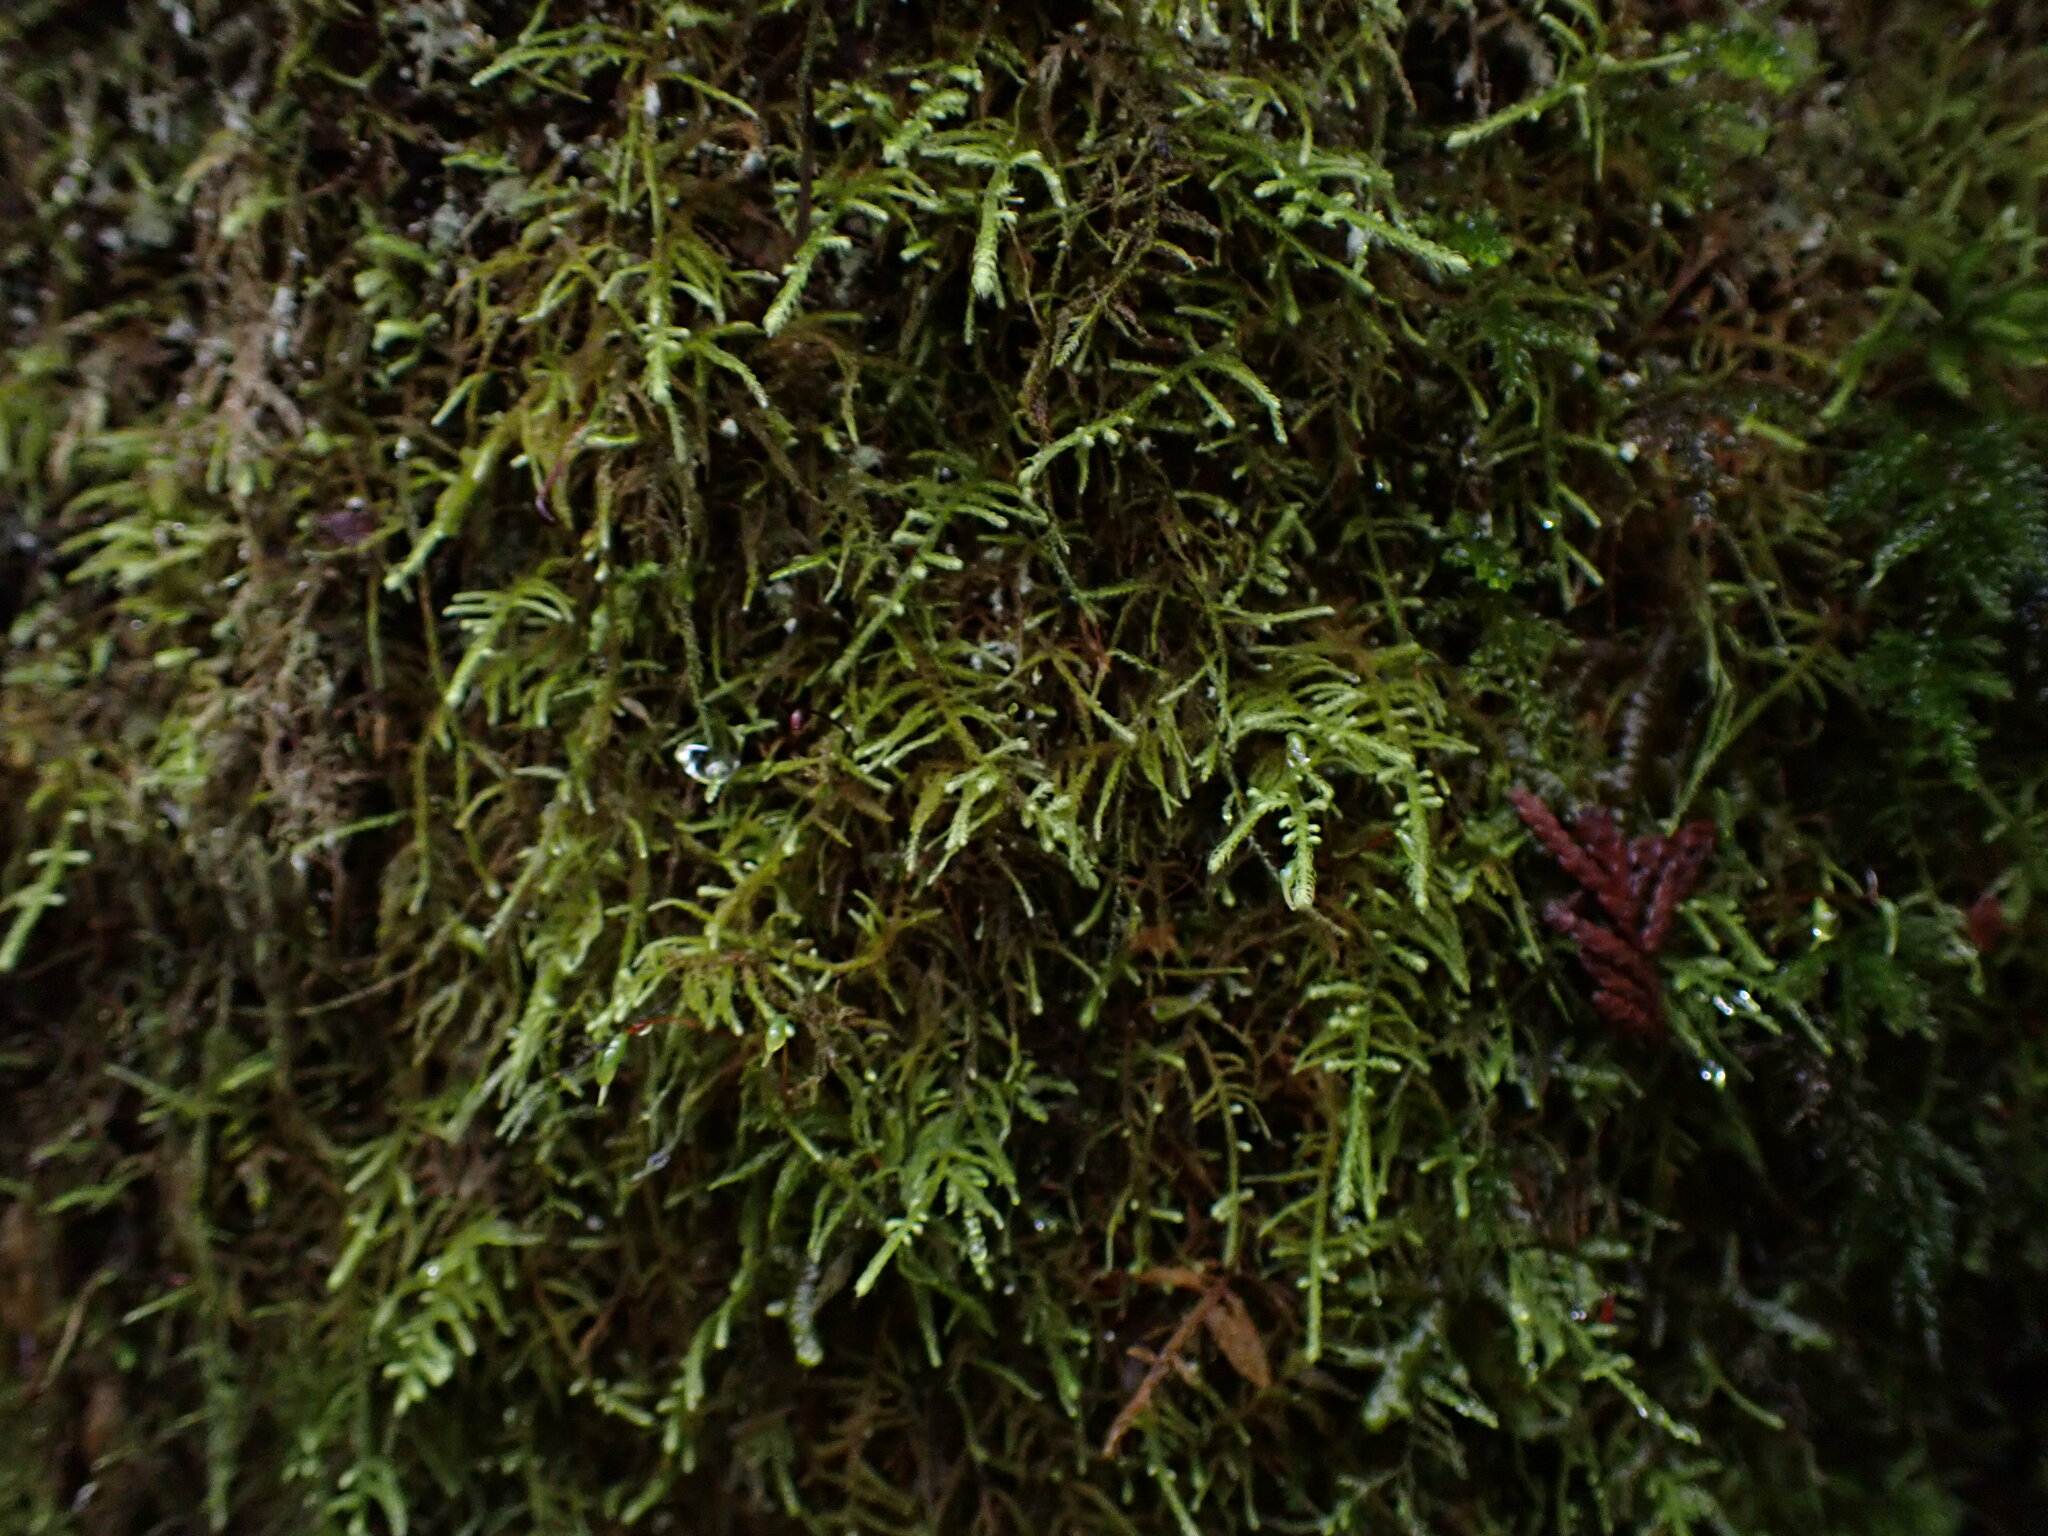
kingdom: Plantae
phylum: Bryophyta
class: Bryopsida
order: Hypnales
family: Brachytheciaceae
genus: Claopodium
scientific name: Claopodium crispifolium
